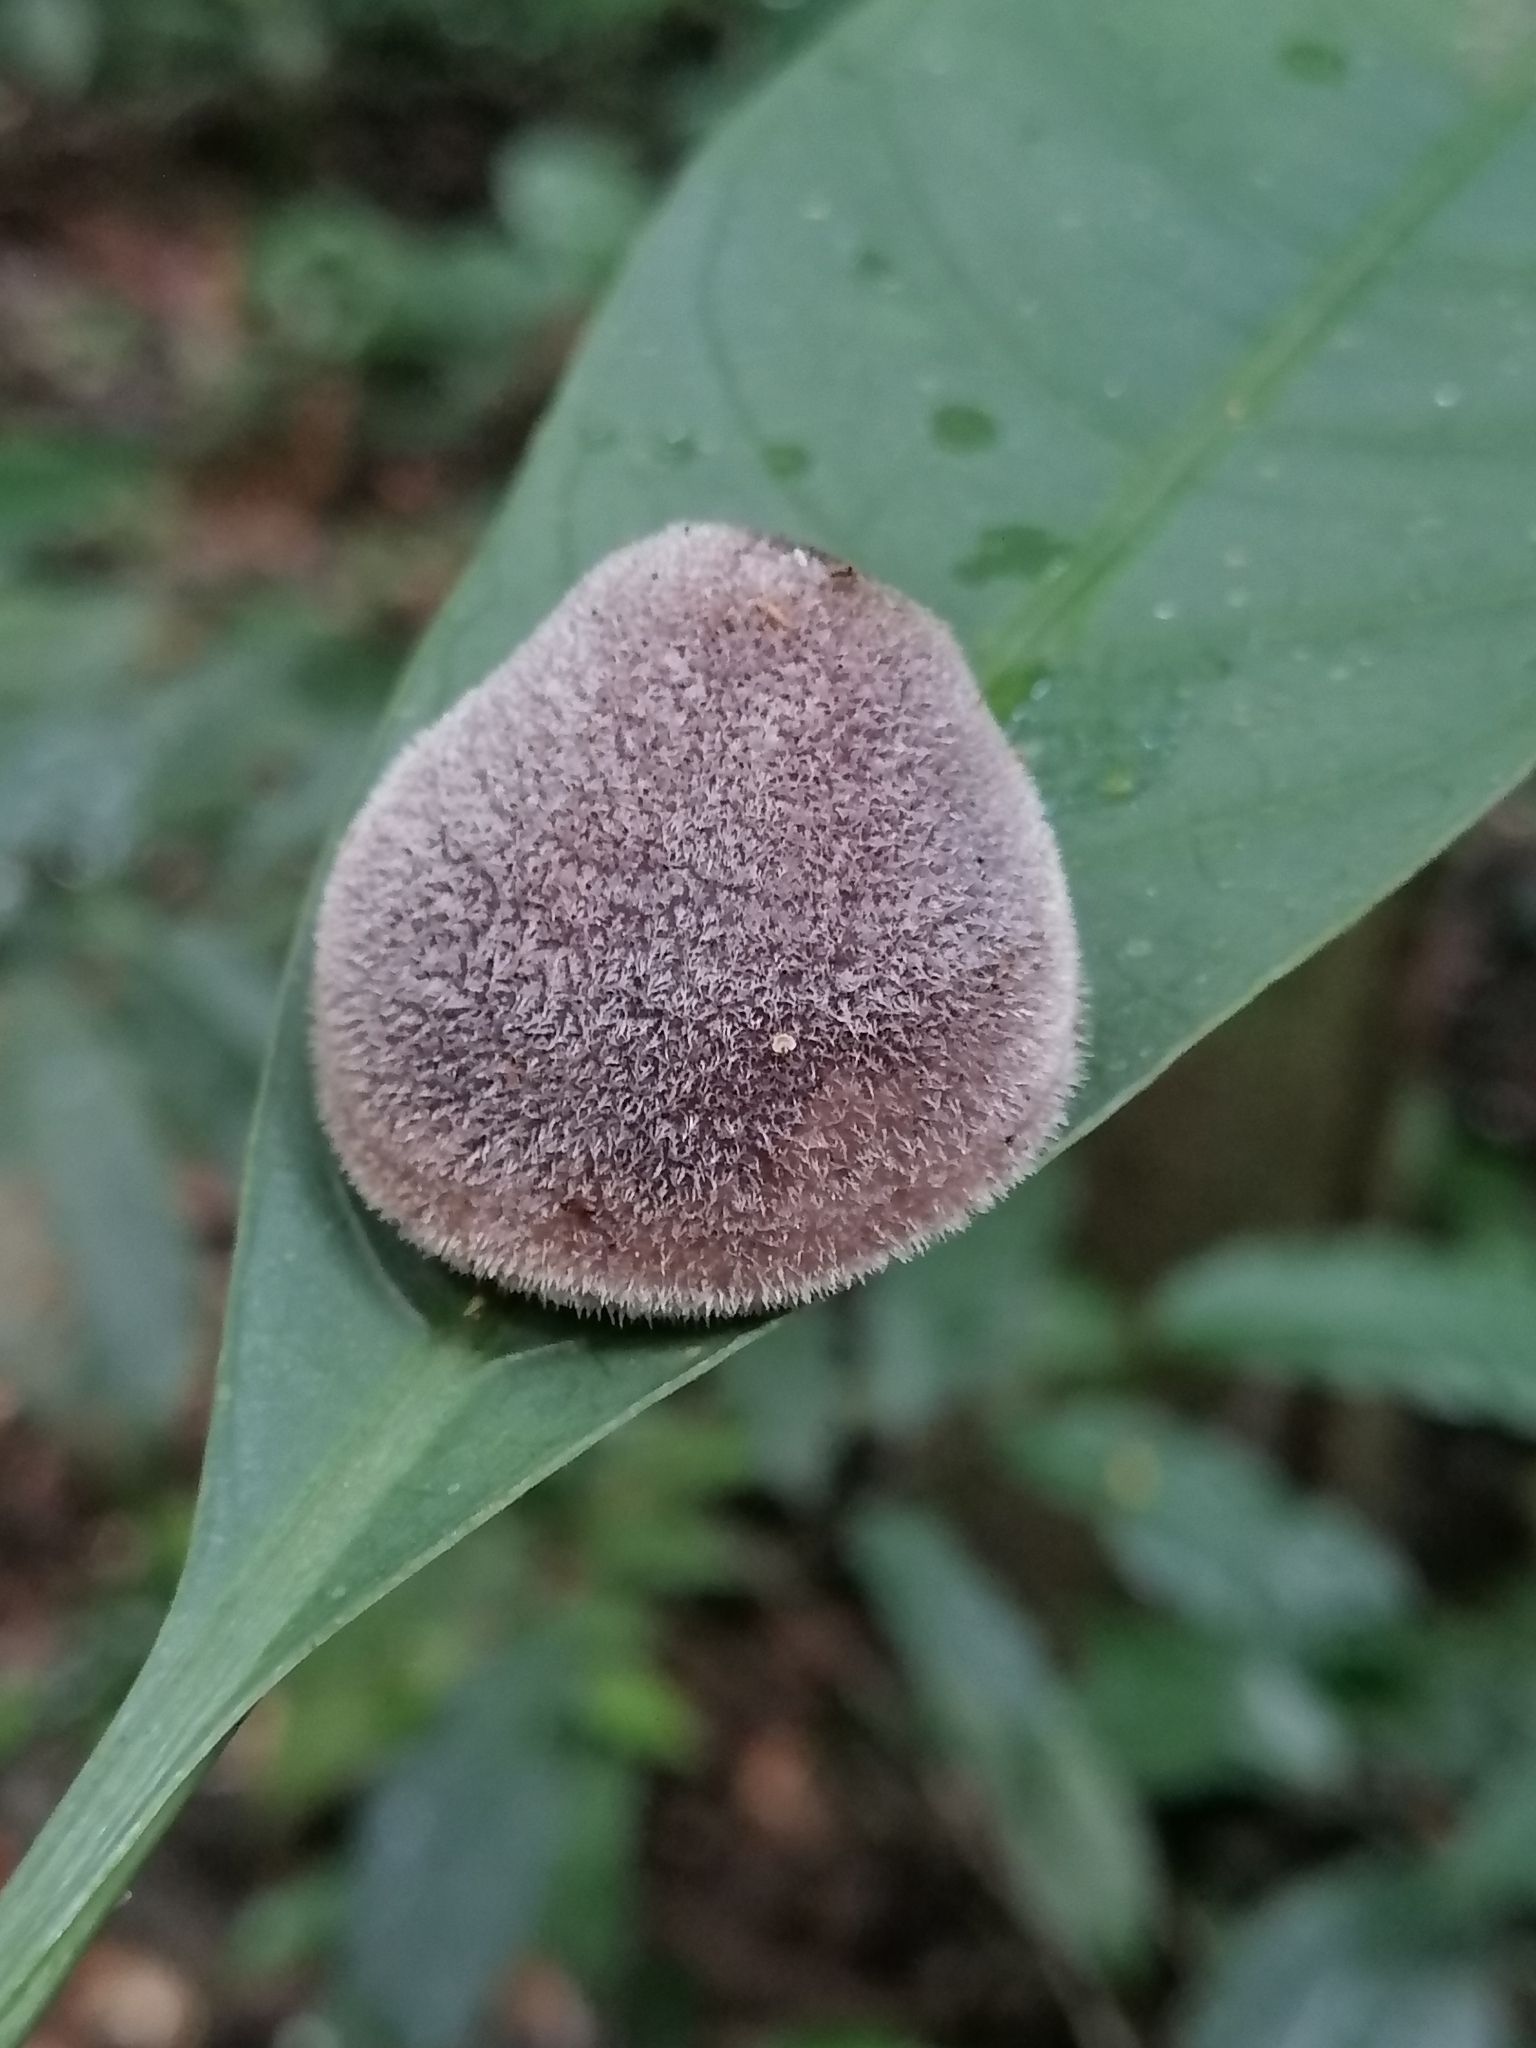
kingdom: Fungi
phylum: Basidiomycota
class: Agaricomycetes
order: Auriculariales
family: Auriculariaceae
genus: Auricularia
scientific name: Auricularia cornea
